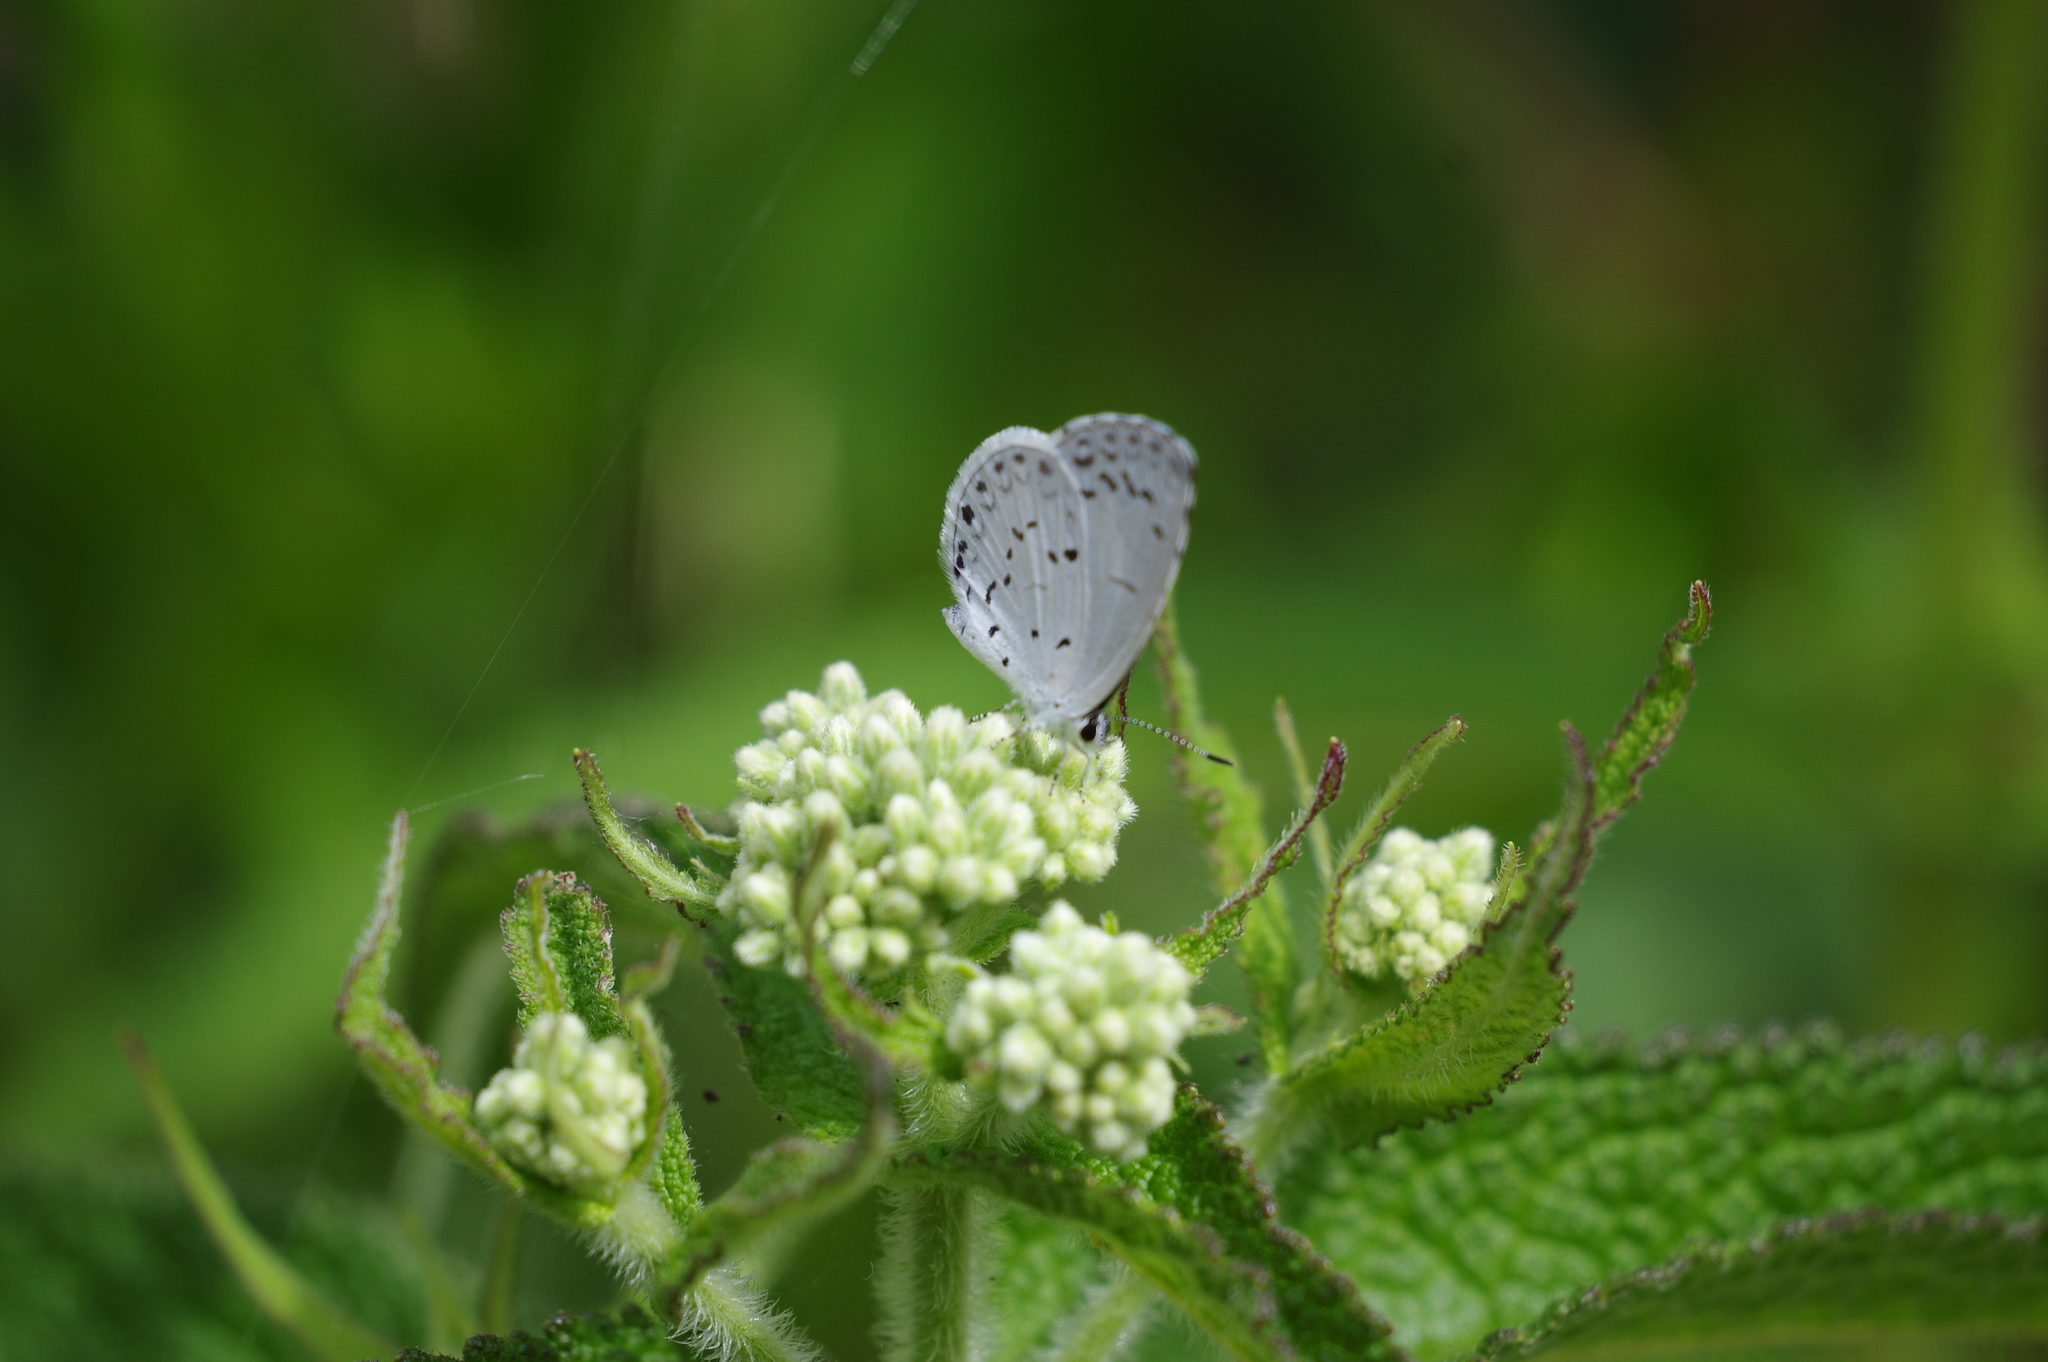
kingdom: Animalia
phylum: Arthropoda
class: Insecta
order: Lepidoptera
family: Lycaenidae
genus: Cyaniris
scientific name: Cyaniris neglecta
